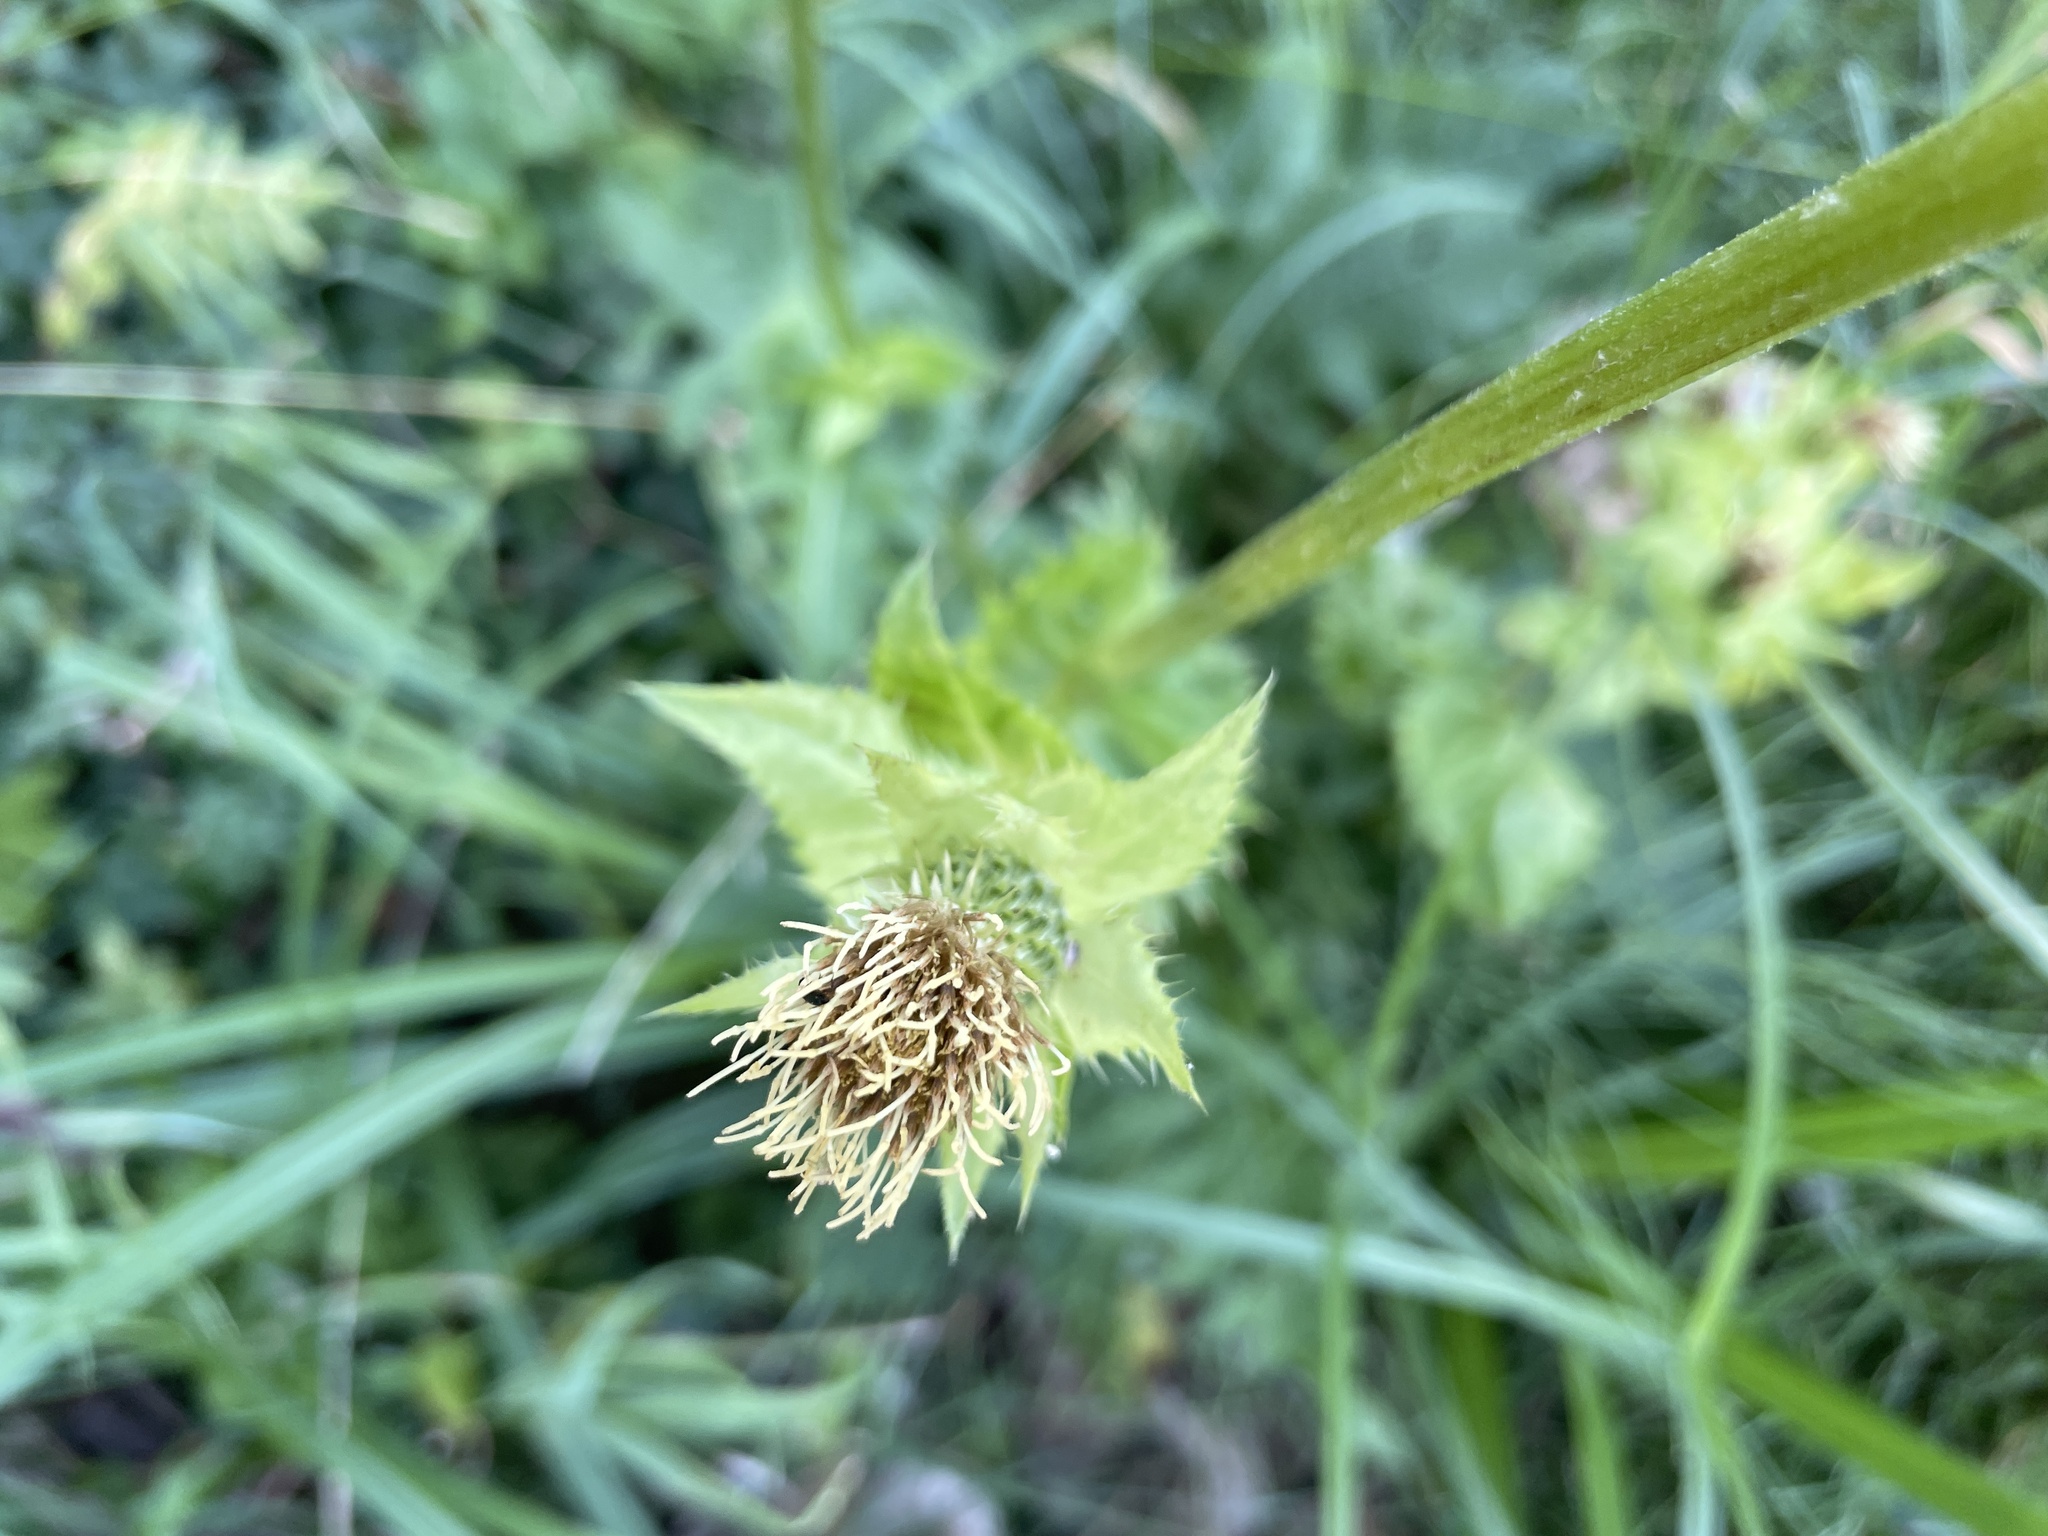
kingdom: Plantae
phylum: Tracheophyta
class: Magnoliopsida
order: Asterales
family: Asteraceae
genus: Cirsium
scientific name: Cirsium oleraceum
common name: Cabbage thistle
